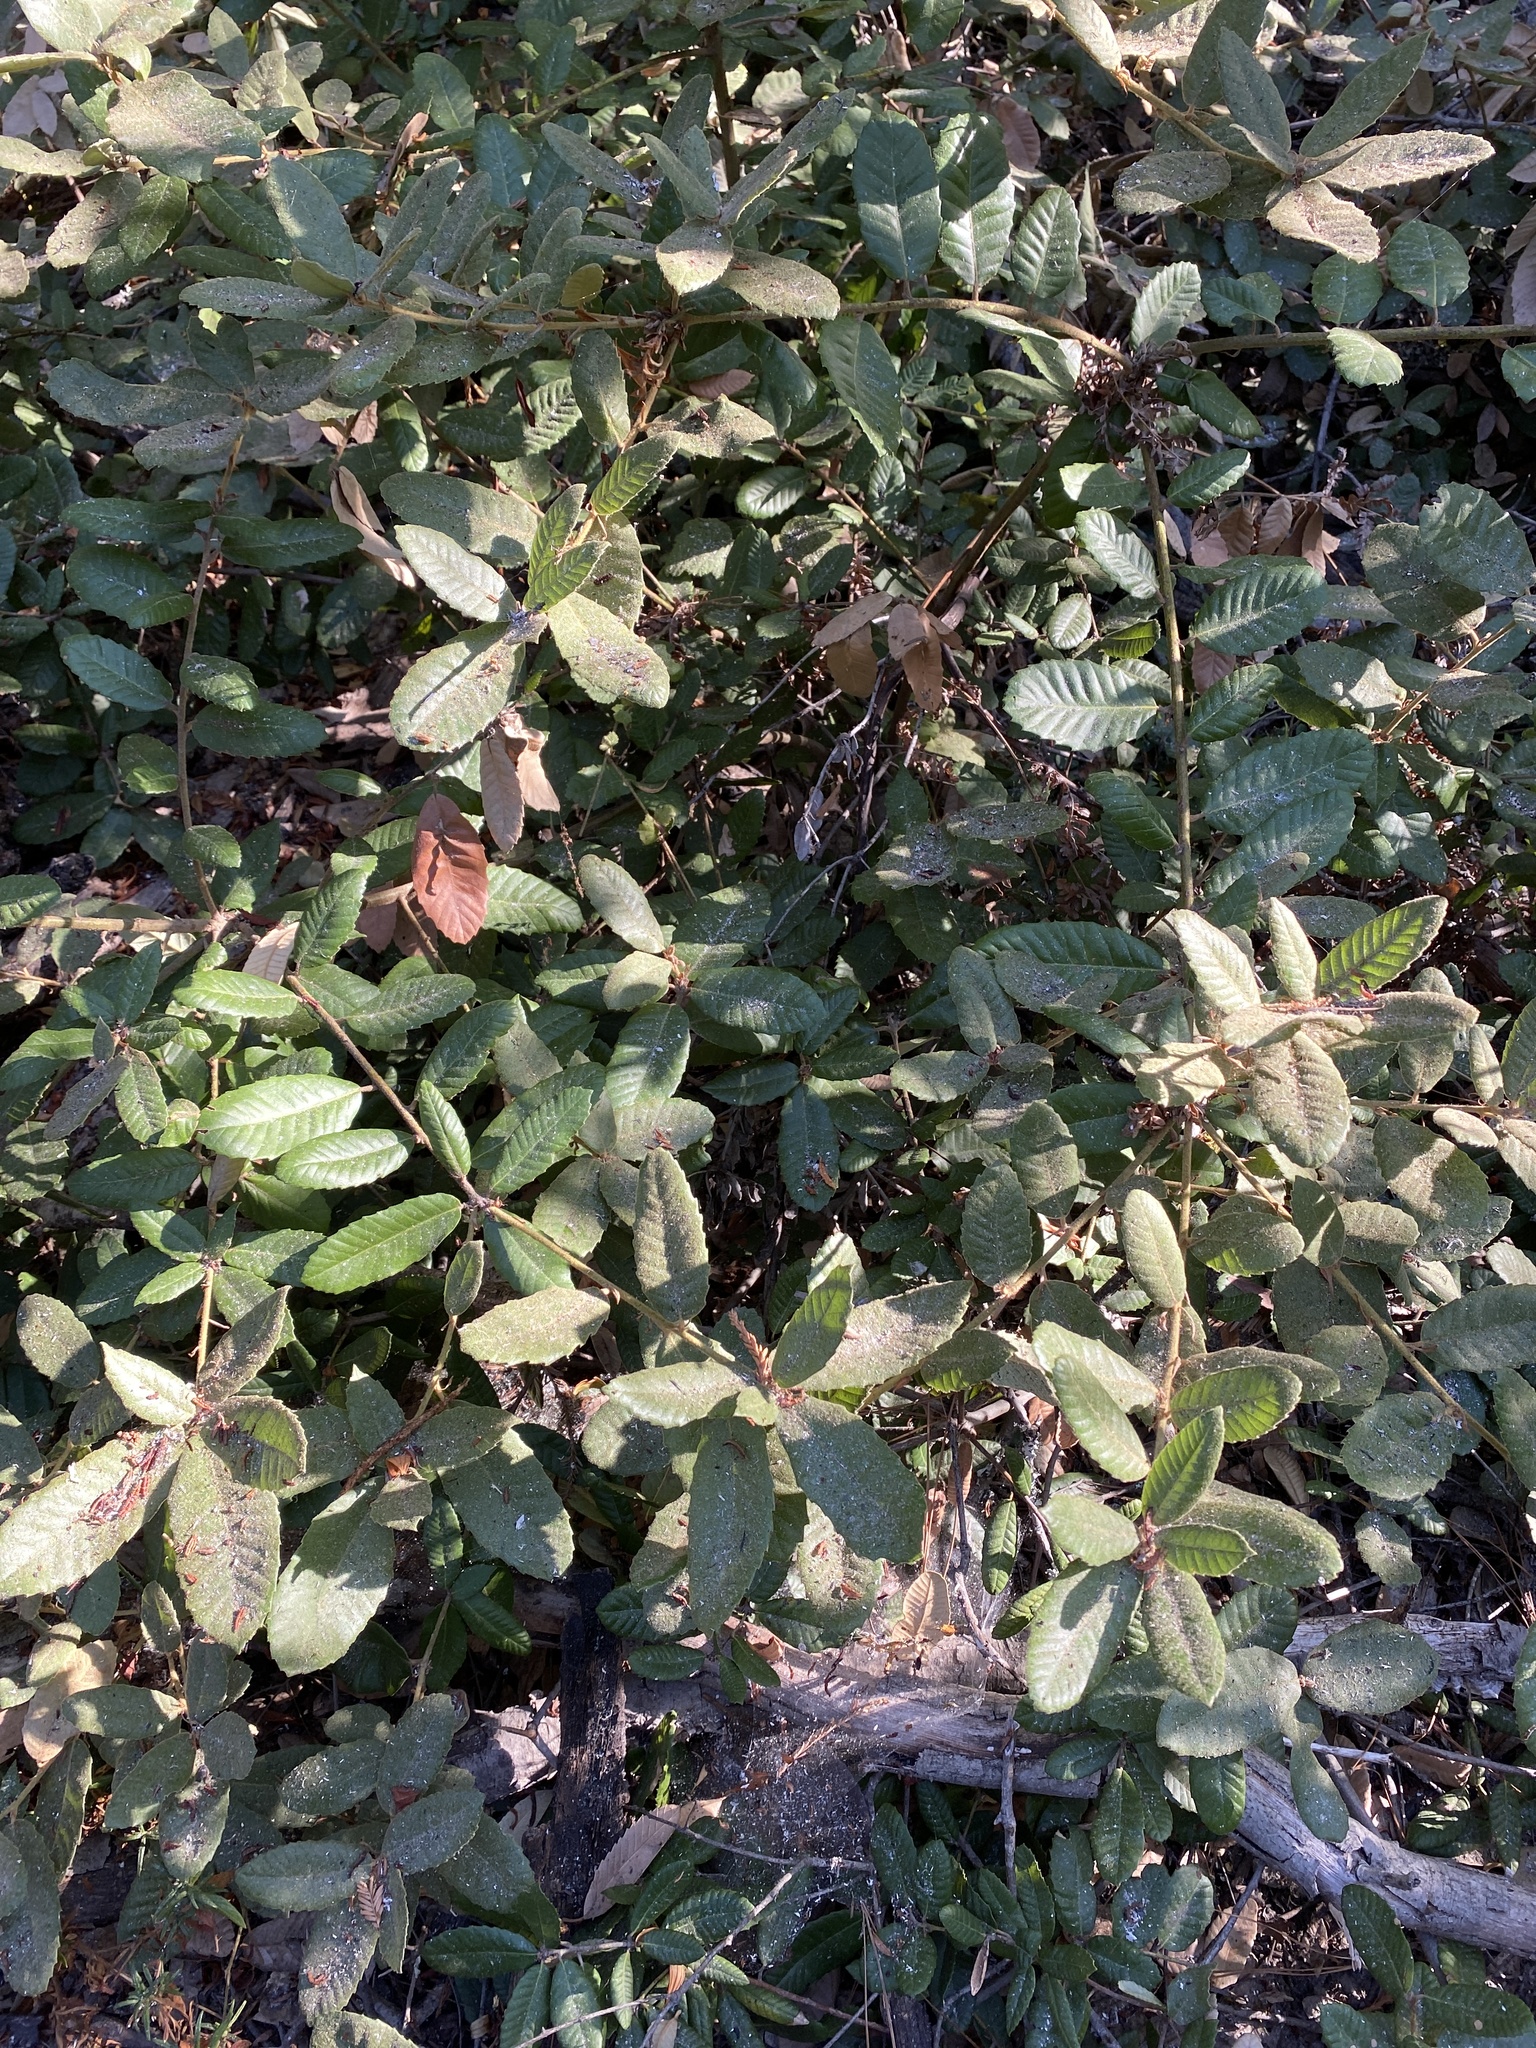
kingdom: Plantae
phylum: Tracheophyta
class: Magnoliopsida
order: Fagales
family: Fagaceae
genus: Notholithocarpus
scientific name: Notholithocarpus densiflorus
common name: Tan bark oak
